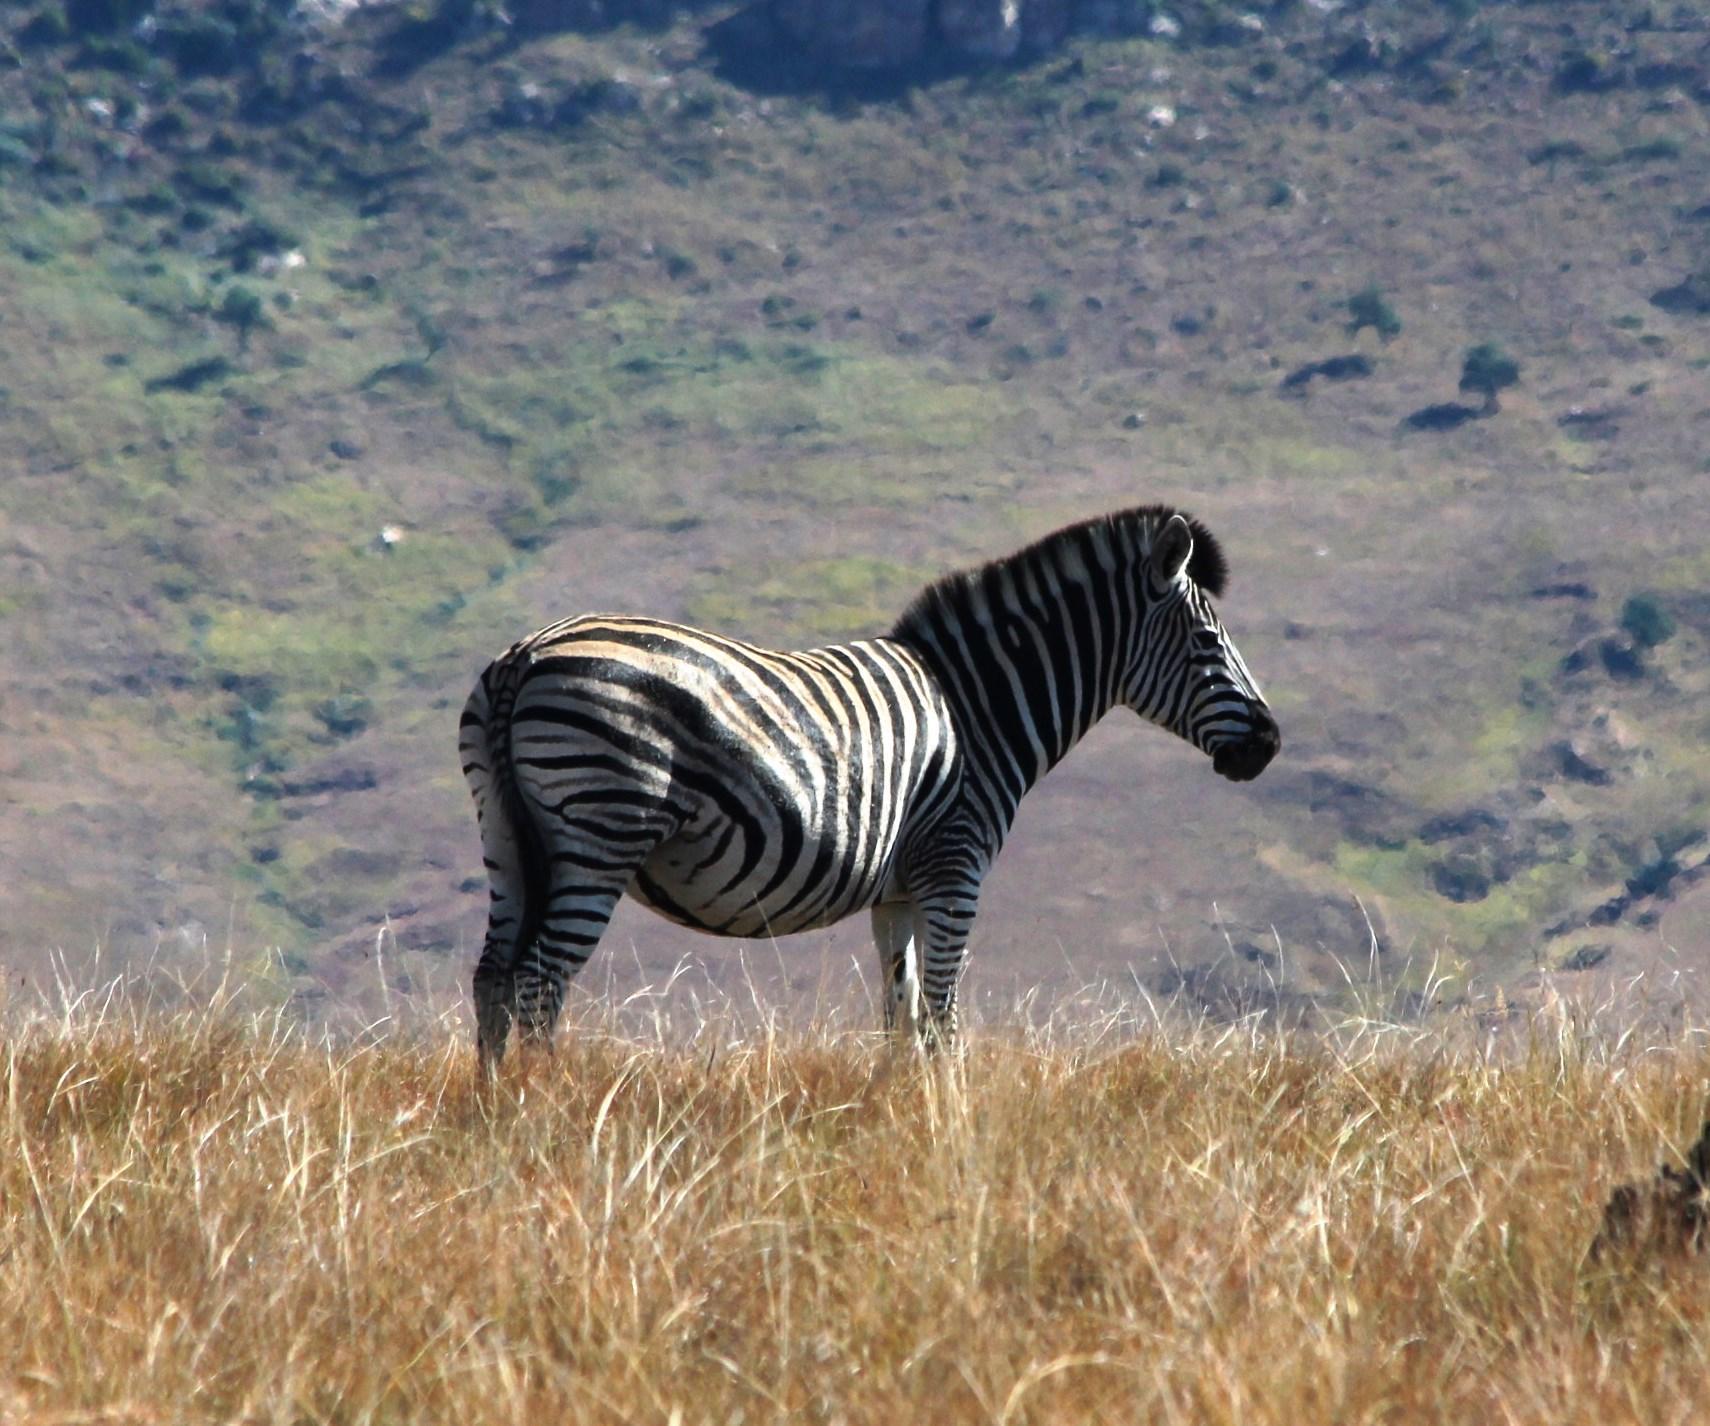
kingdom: Animalia
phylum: Chordata
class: Mammalia
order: Perissodactyla
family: Equidae
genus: Equus
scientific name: Equus quagga
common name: Plains zebra
